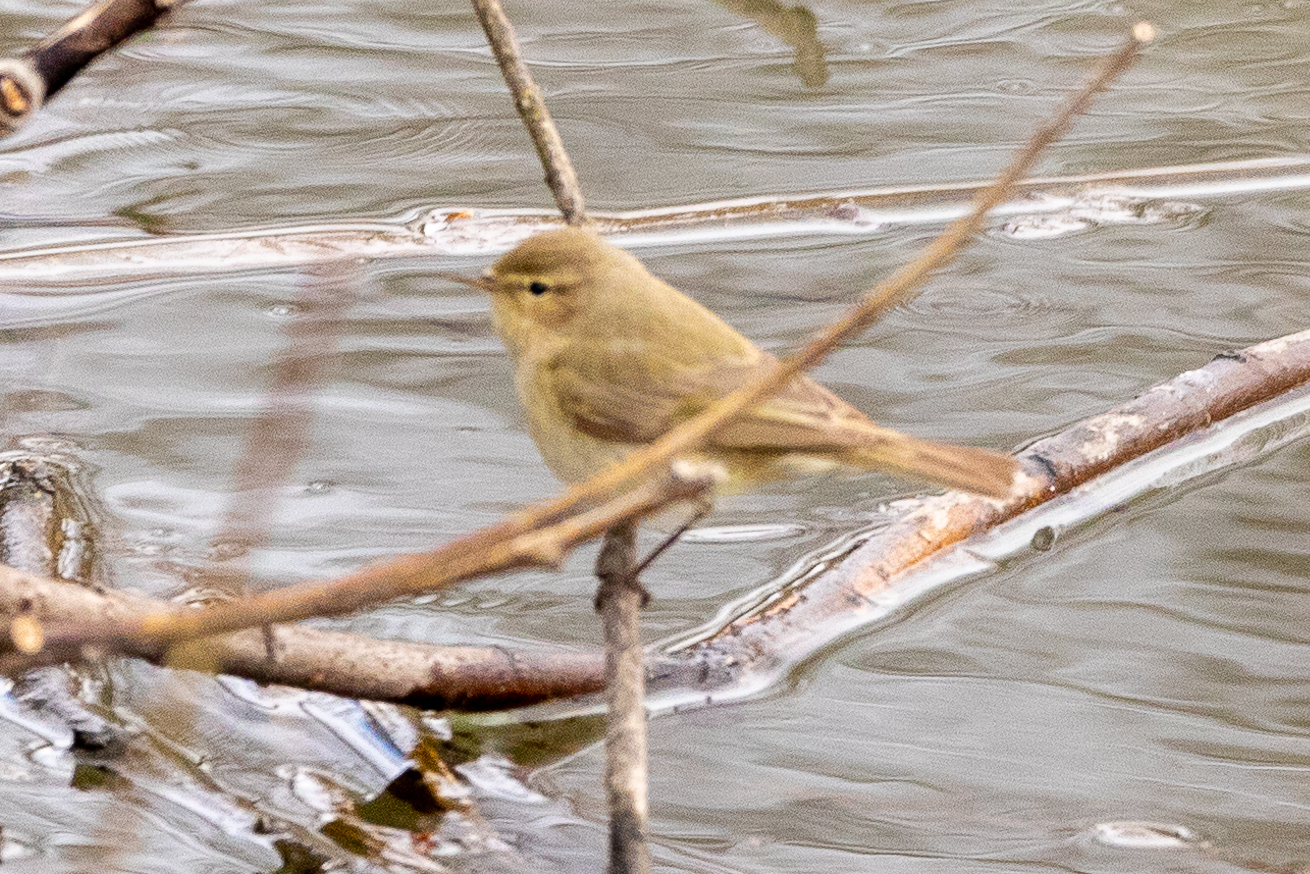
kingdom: Animalia
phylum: Chordata
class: Aves
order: Passeriformes
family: Phylloscopidae
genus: Phylloscopus
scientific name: Phylloscopus collybita
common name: Common chiffchaff
